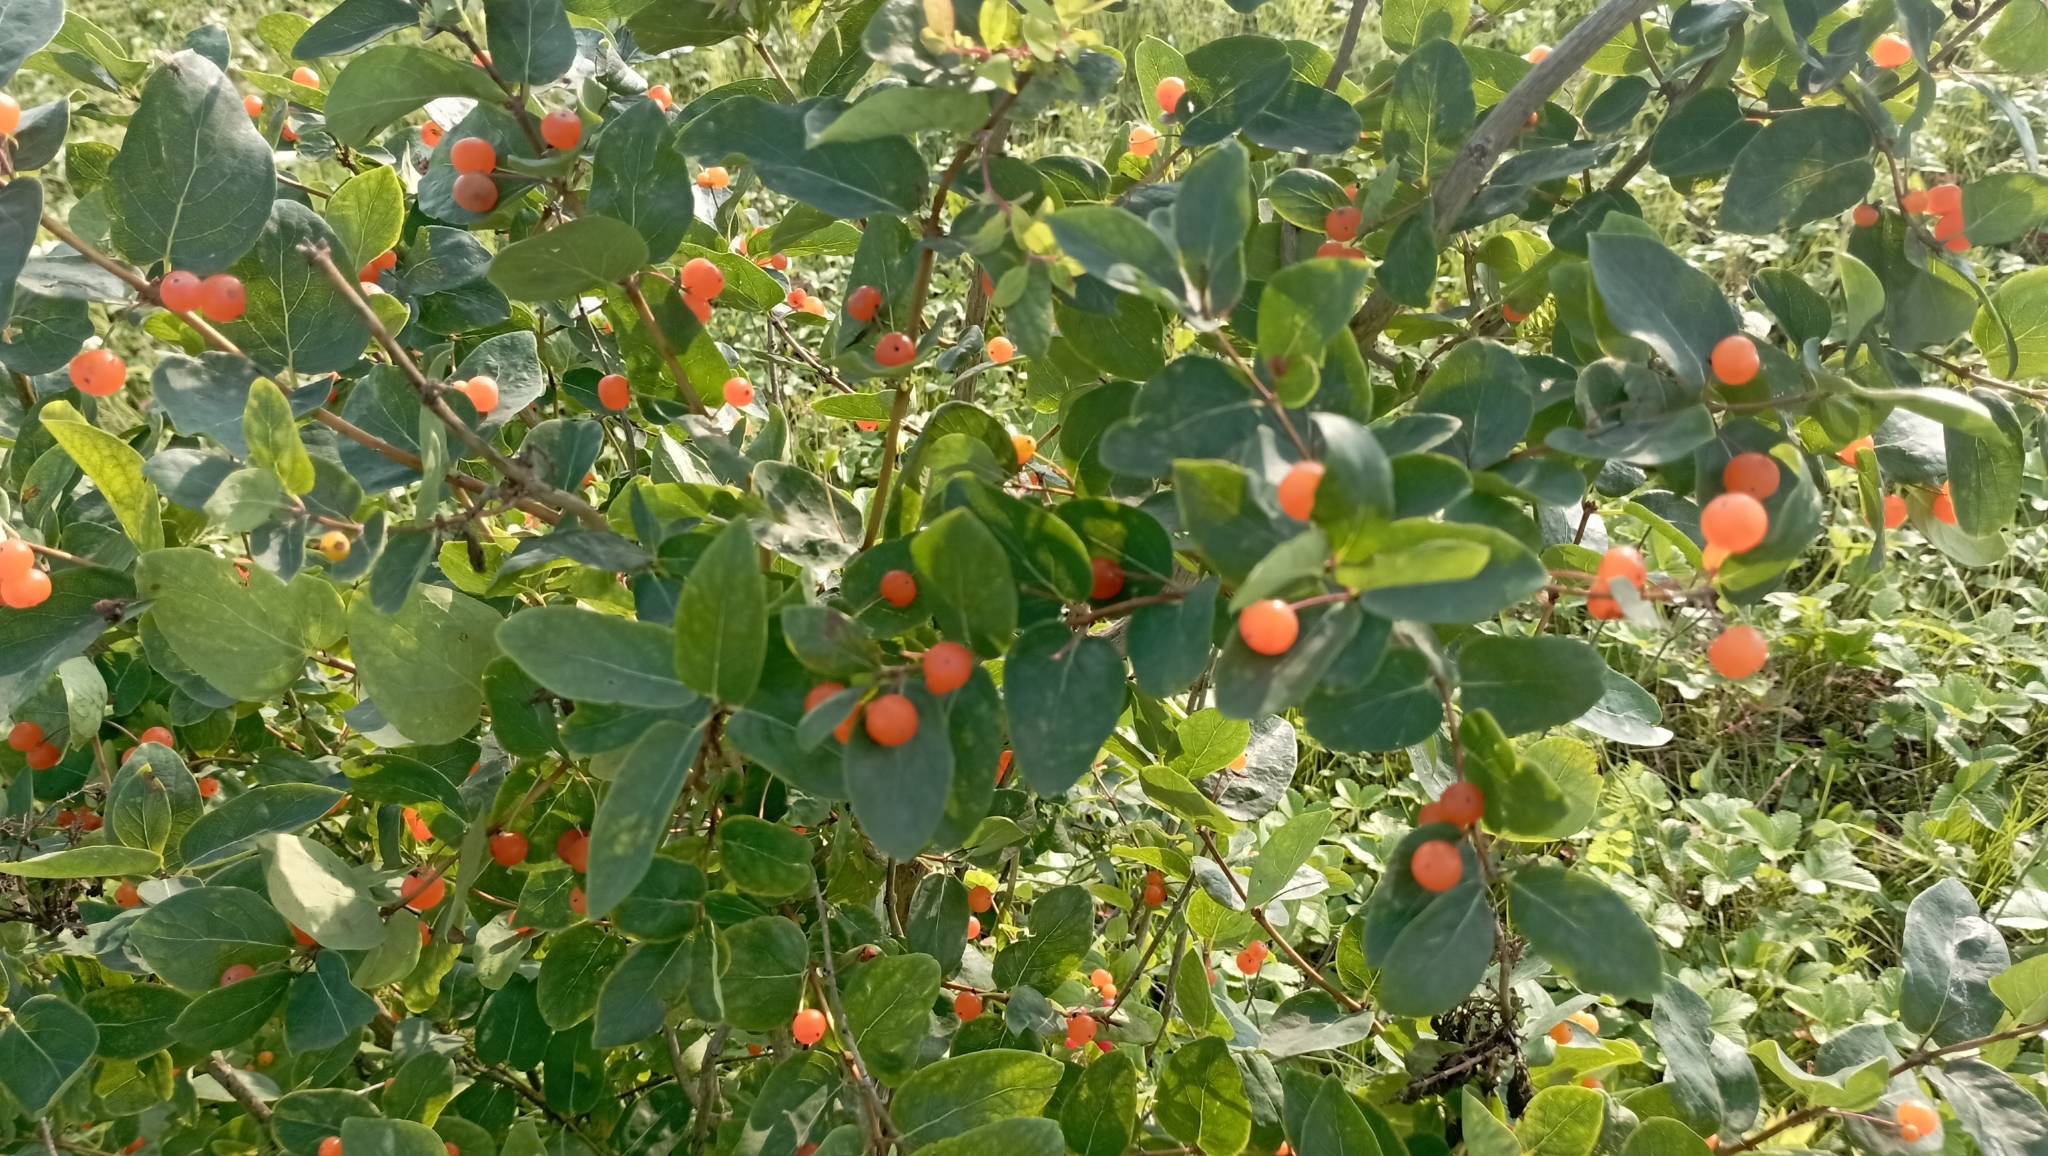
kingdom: Plantae
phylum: Tracheophyta
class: Magnoliopsida
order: Dipsacales
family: Caprifoliaceae
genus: Lonicera
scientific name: Lonicera tatarica
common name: Tatarian honeysuckle
